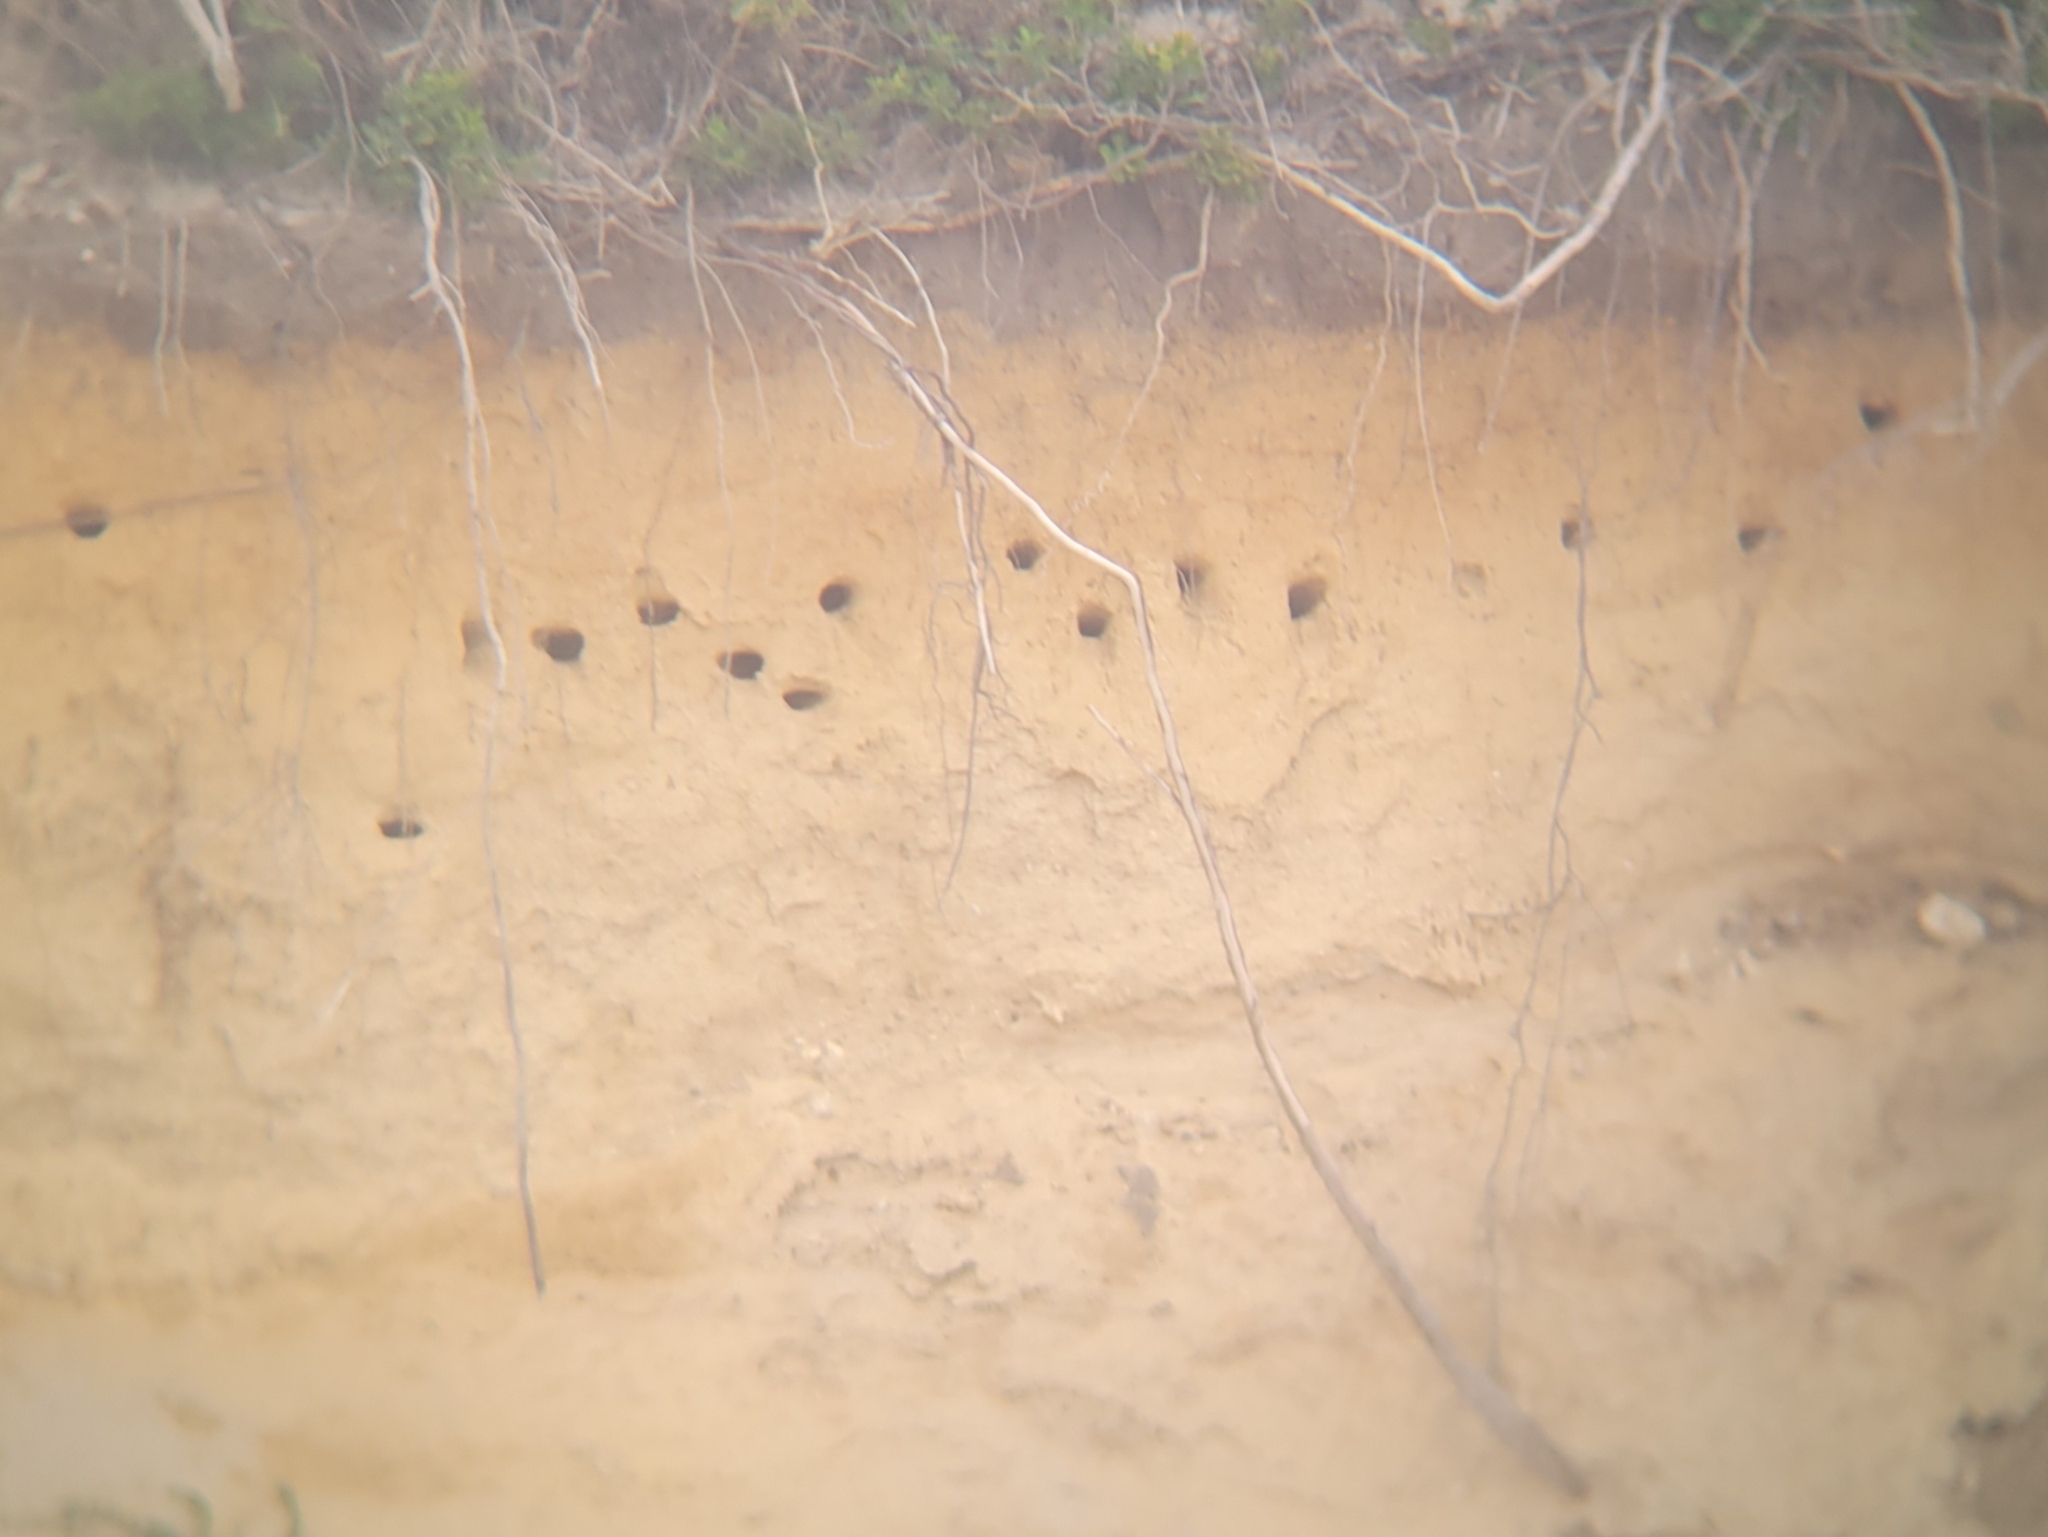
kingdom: Animalia
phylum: Chordata
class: Aves
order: Passeriformes
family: Hirundinidae
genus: Riparia
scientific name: Riparia riparia
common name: Sand martin
